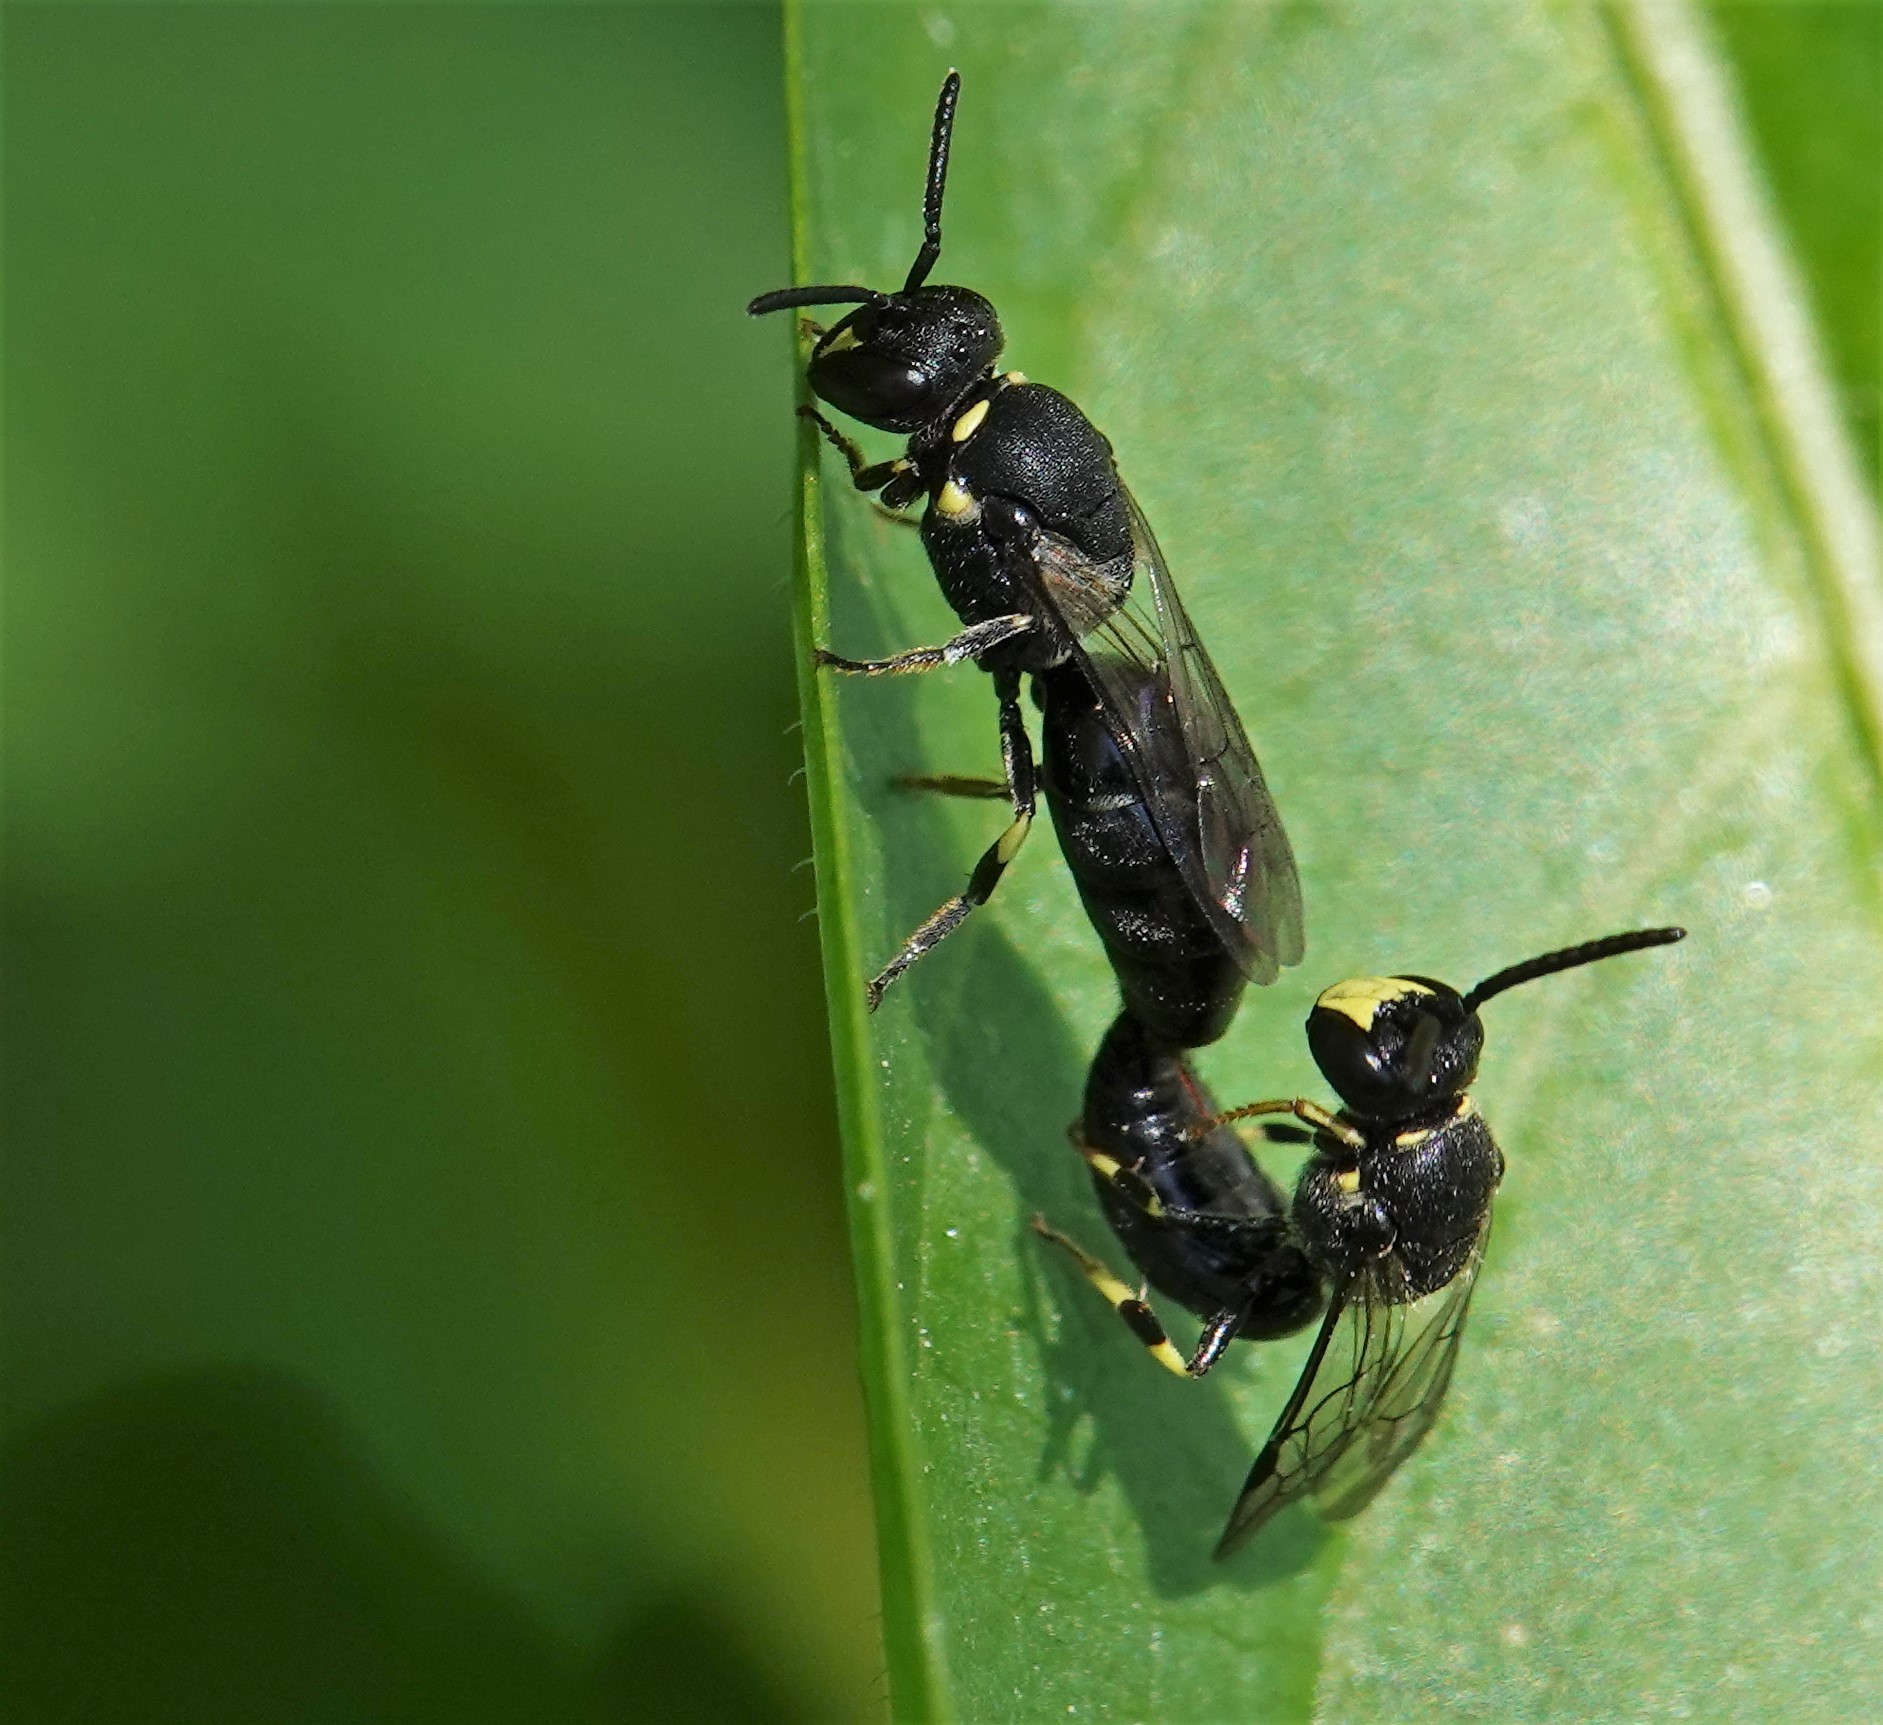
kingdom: Animalia
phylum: Arthropoda
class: Insecta
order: Hymenoptera
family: Colletidae
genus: Hylaeus
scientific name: Hylaeus modestus
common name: Yellow-faced bee
